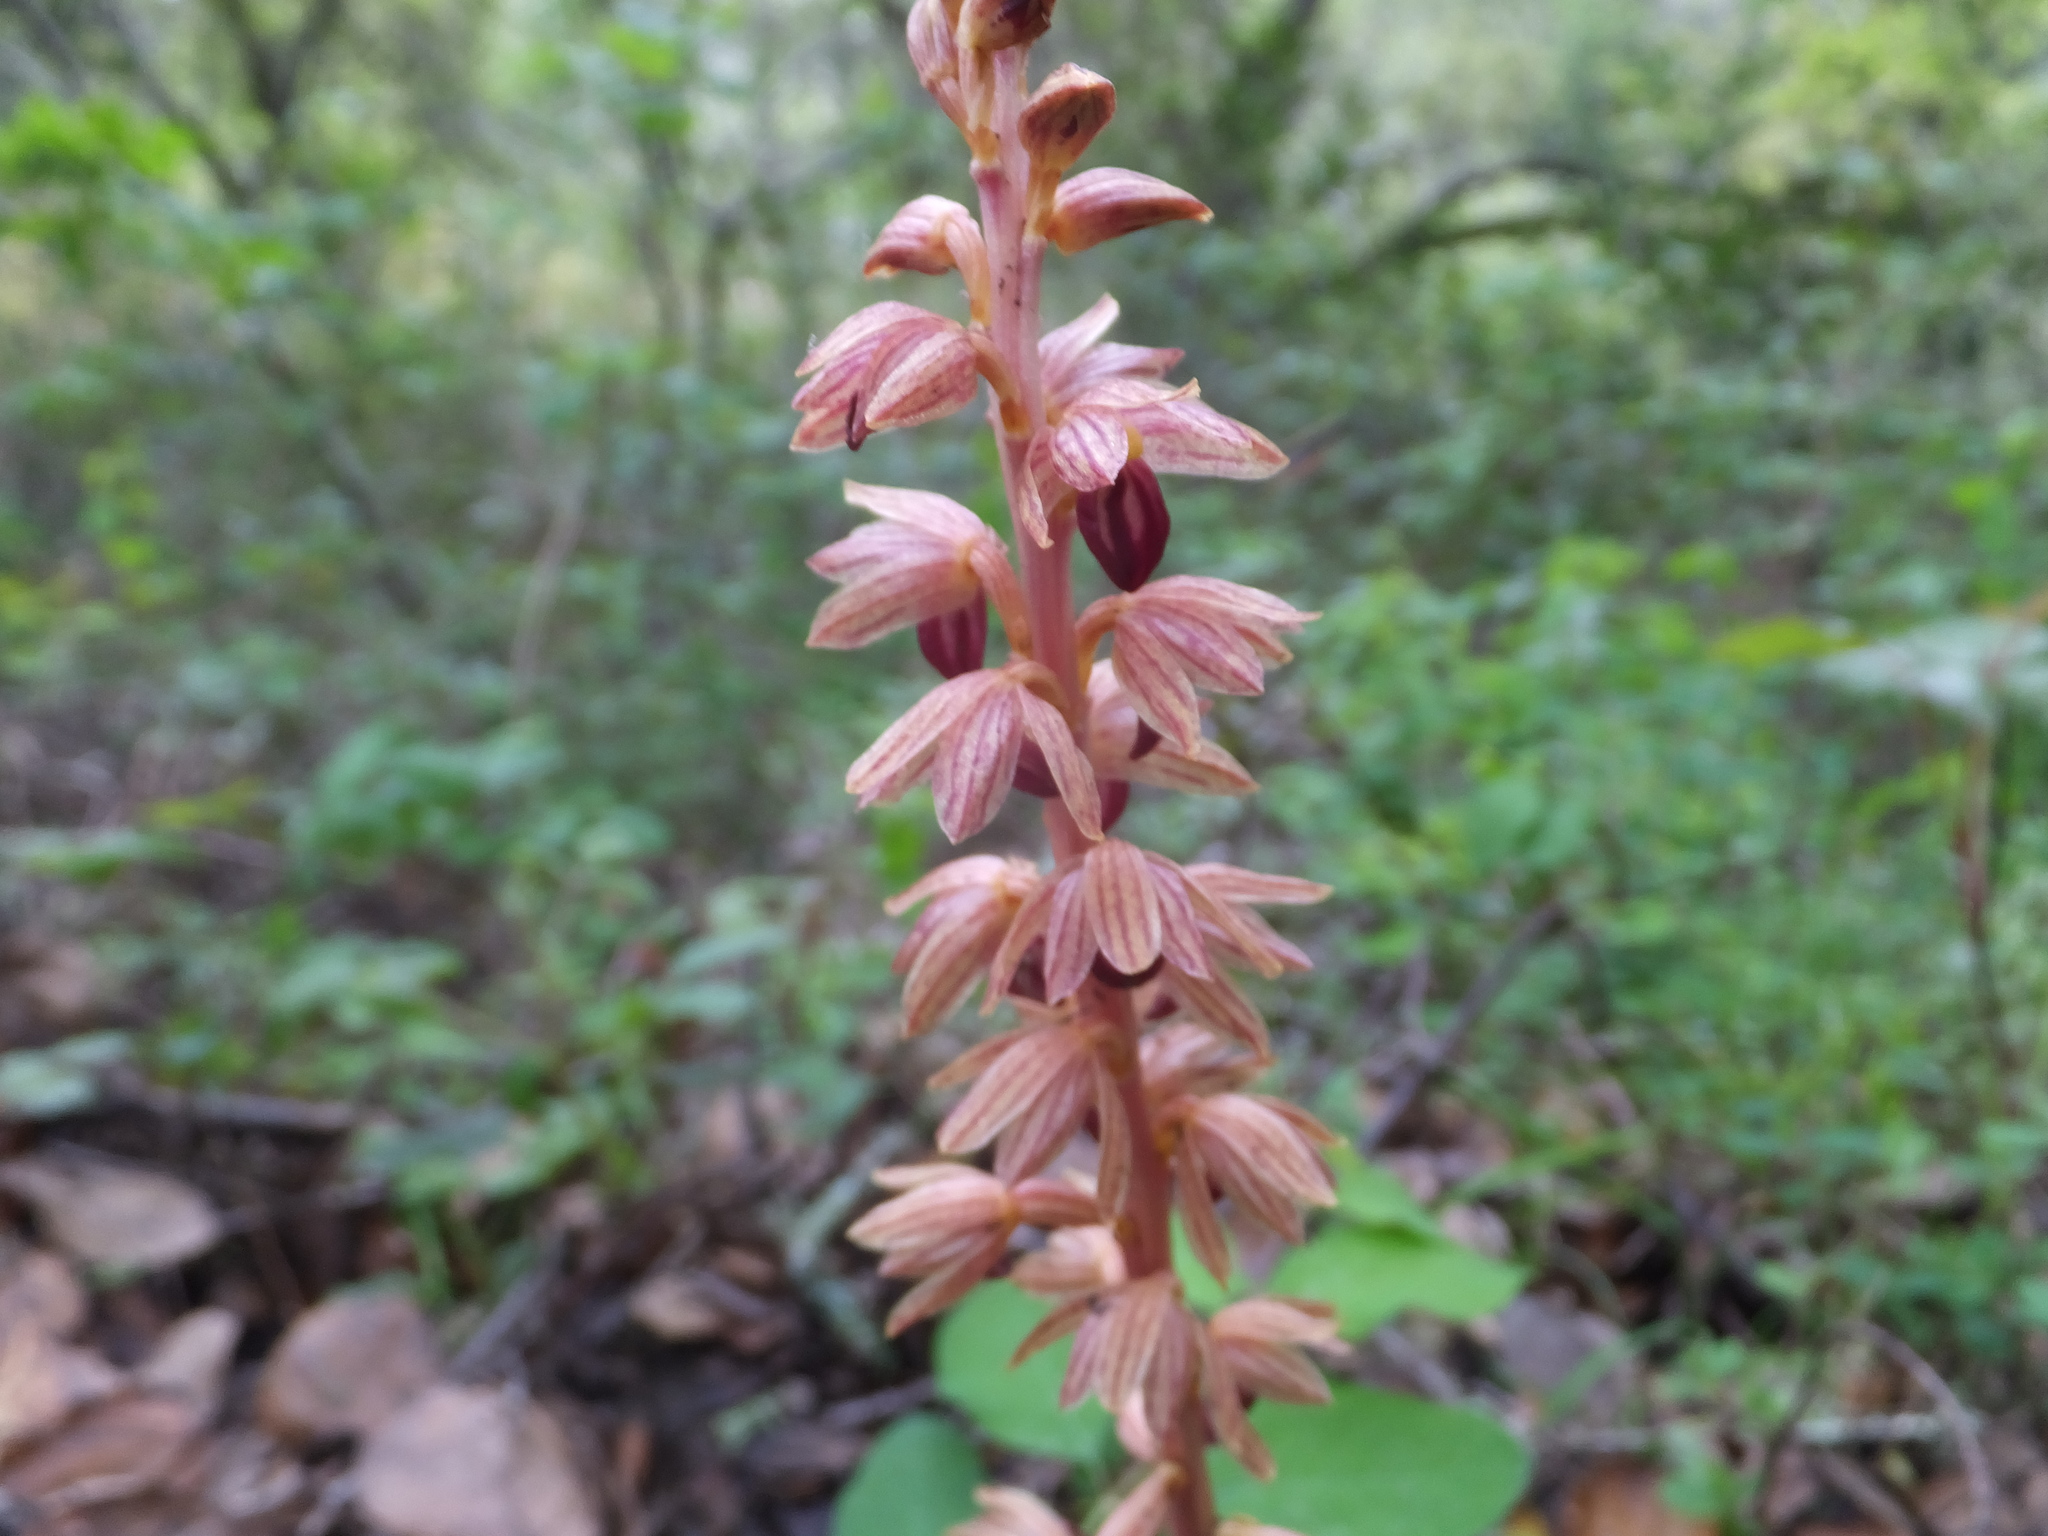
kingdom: Plantae
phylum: Tracheophyta
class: Liliopsida
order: Asparagales
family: Orchidaceae
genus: Corallorhiza
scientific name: Corallorhiza striata
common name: Hooded coralroot
